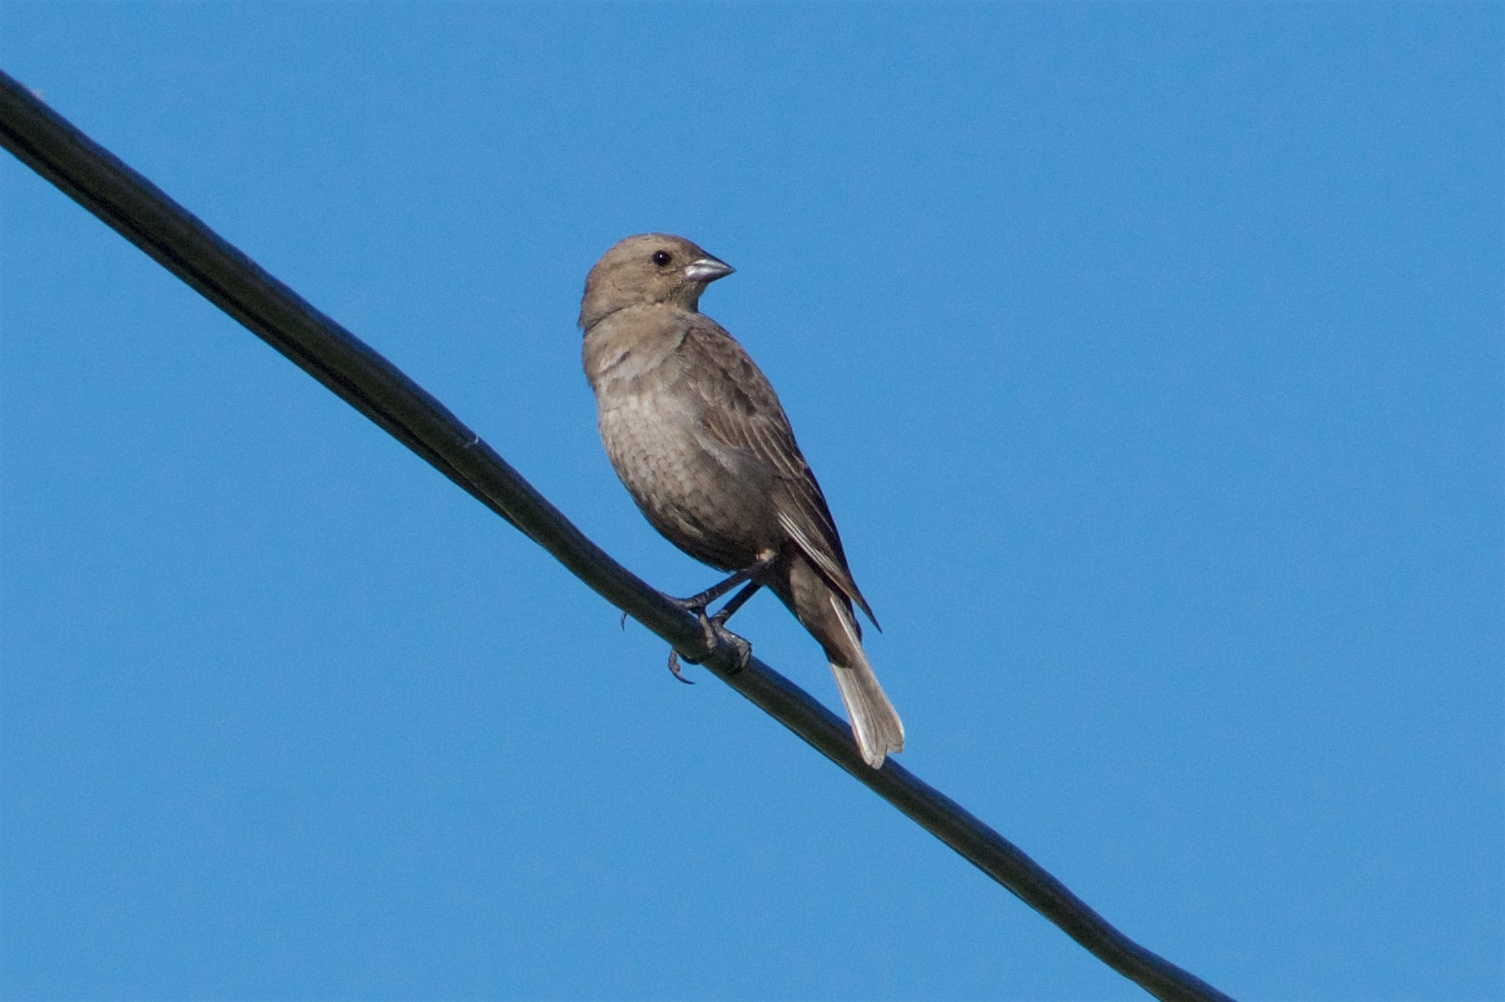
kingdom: Animalia
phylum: Chordata
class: Aves
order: Passeriformes
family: Icteridae
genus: Molothrus
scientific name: Molothrus ater
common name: Brown-headed cowbird
